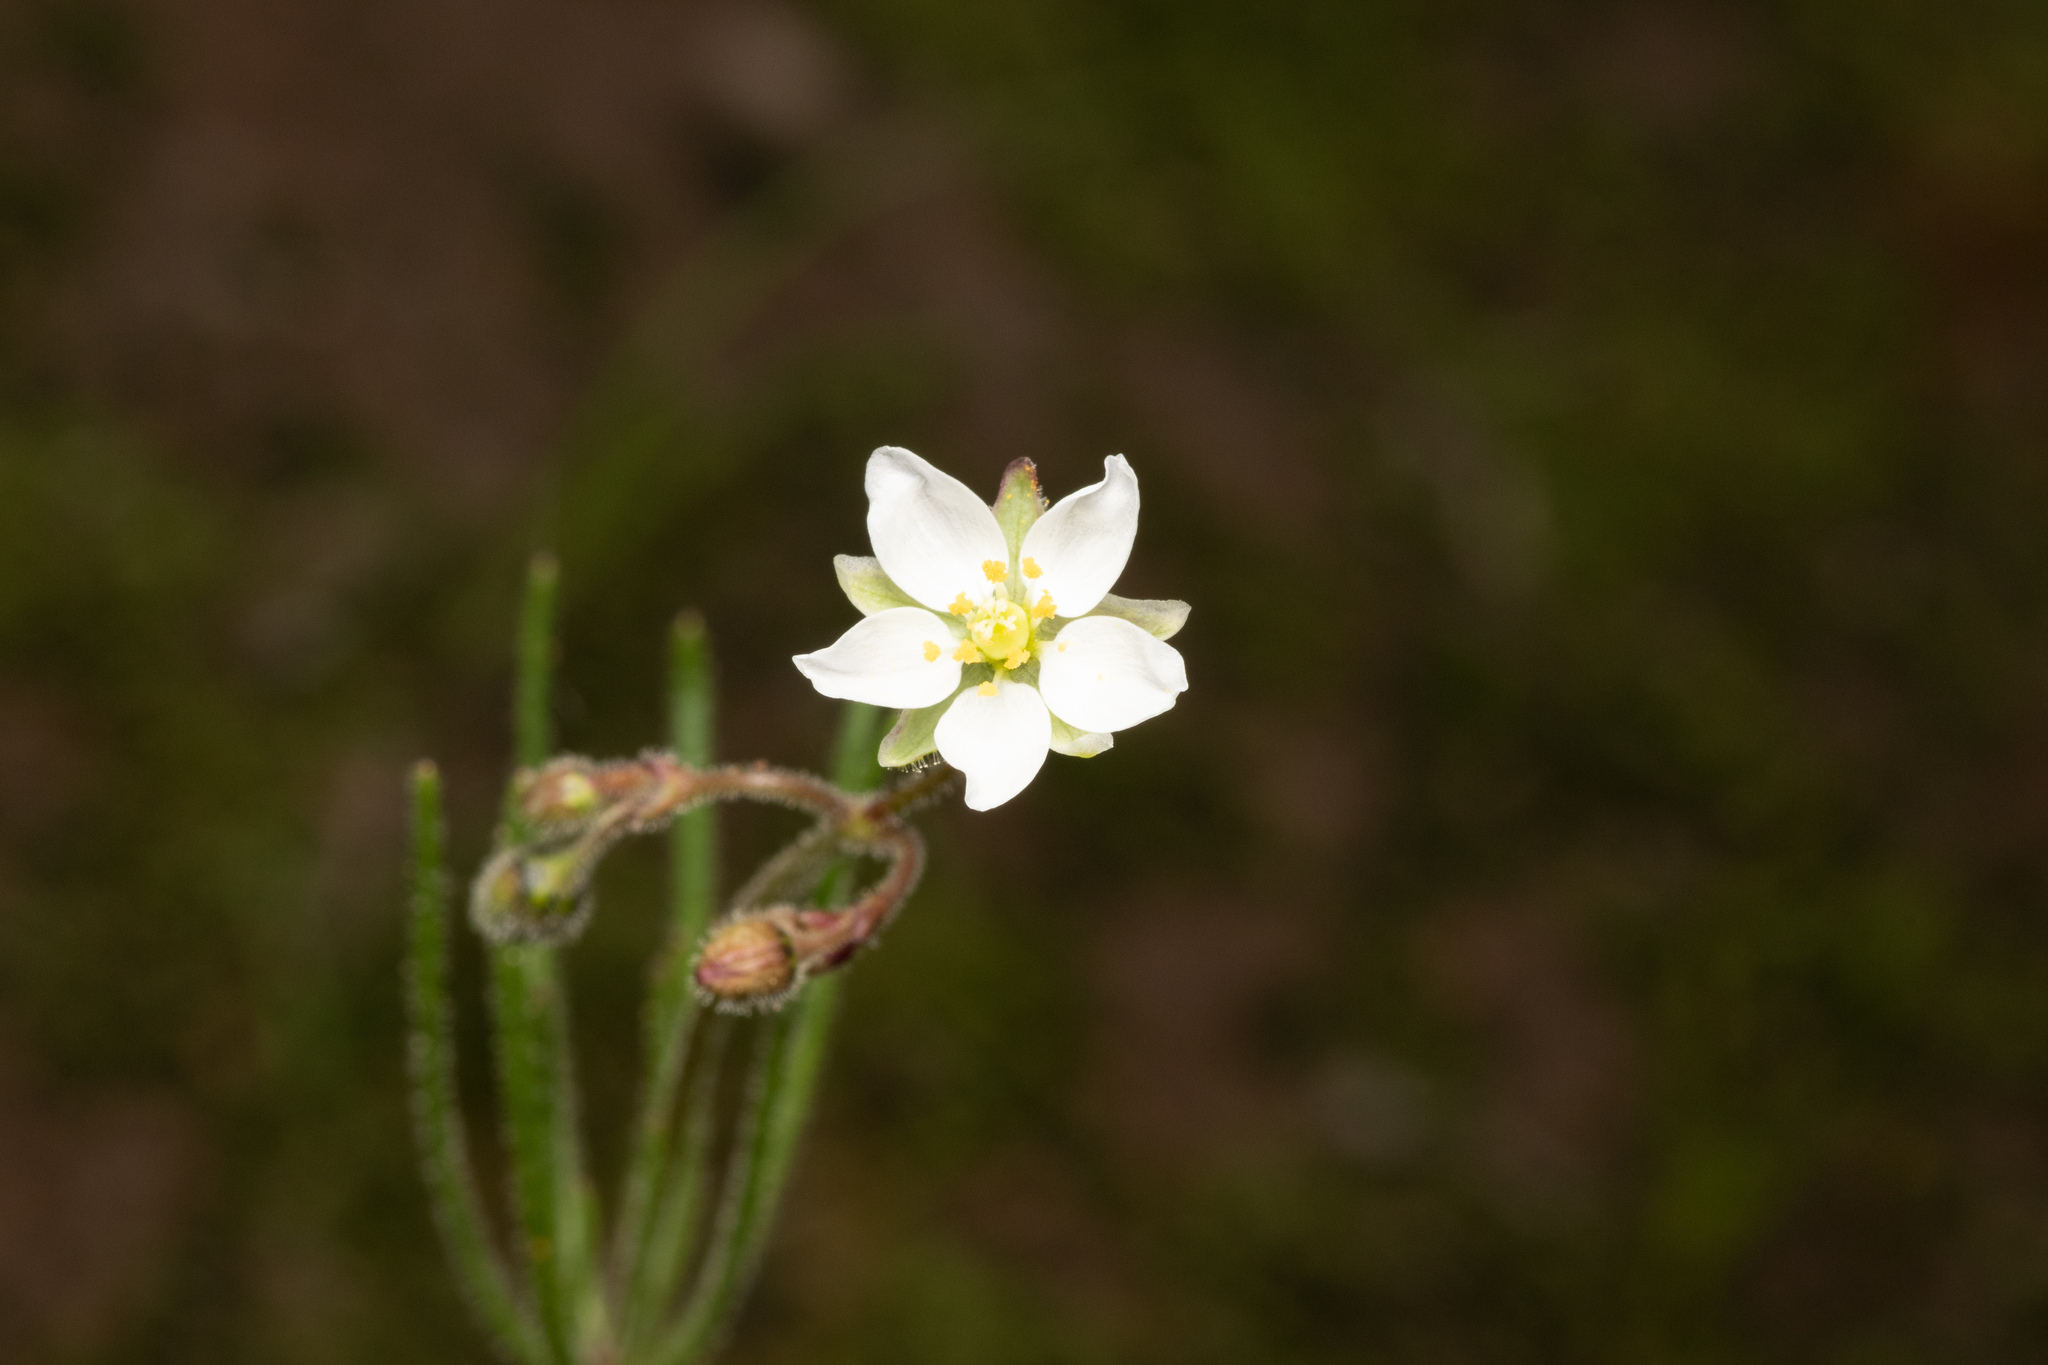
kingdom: Plantae
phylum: Tracheophyta
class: Magnoliopsida
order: Caryophyllales
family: Caryophyllaceae
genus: Spergula
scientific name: Spergula arvensis
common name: Corn spurrey
